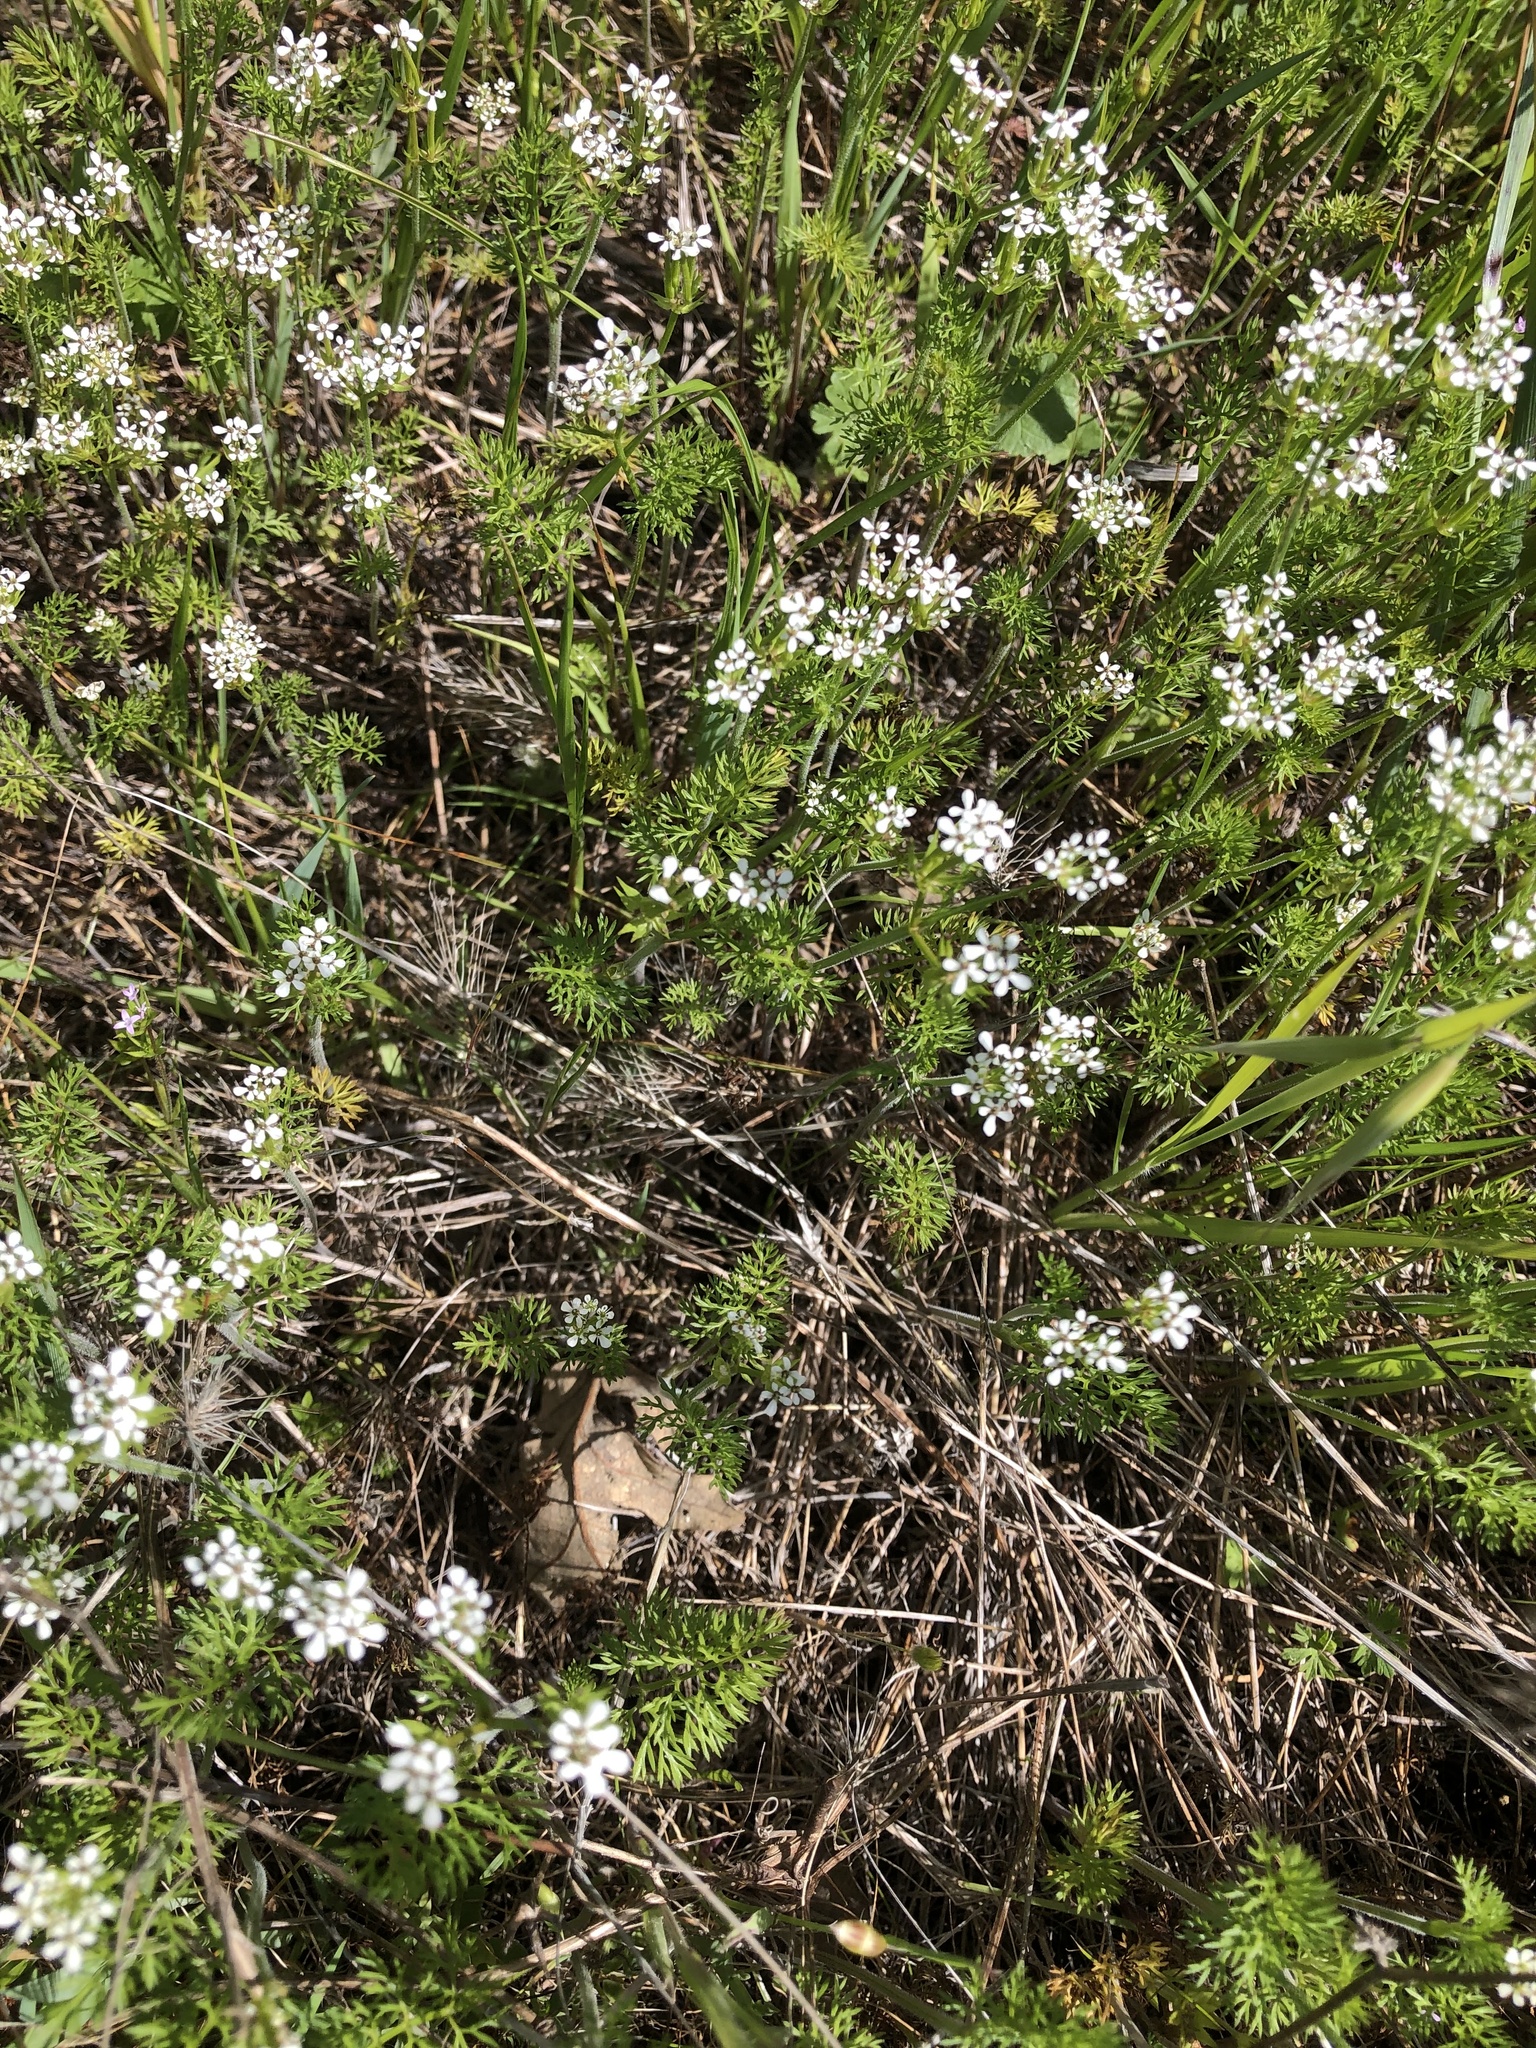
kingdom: Plantae
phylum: Tracheophyta
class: Magnoliopsida
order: Apiales
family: Apiaceae
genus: Scandix
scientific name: Scandix pecten-veneris
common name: Shepherd's-needle
